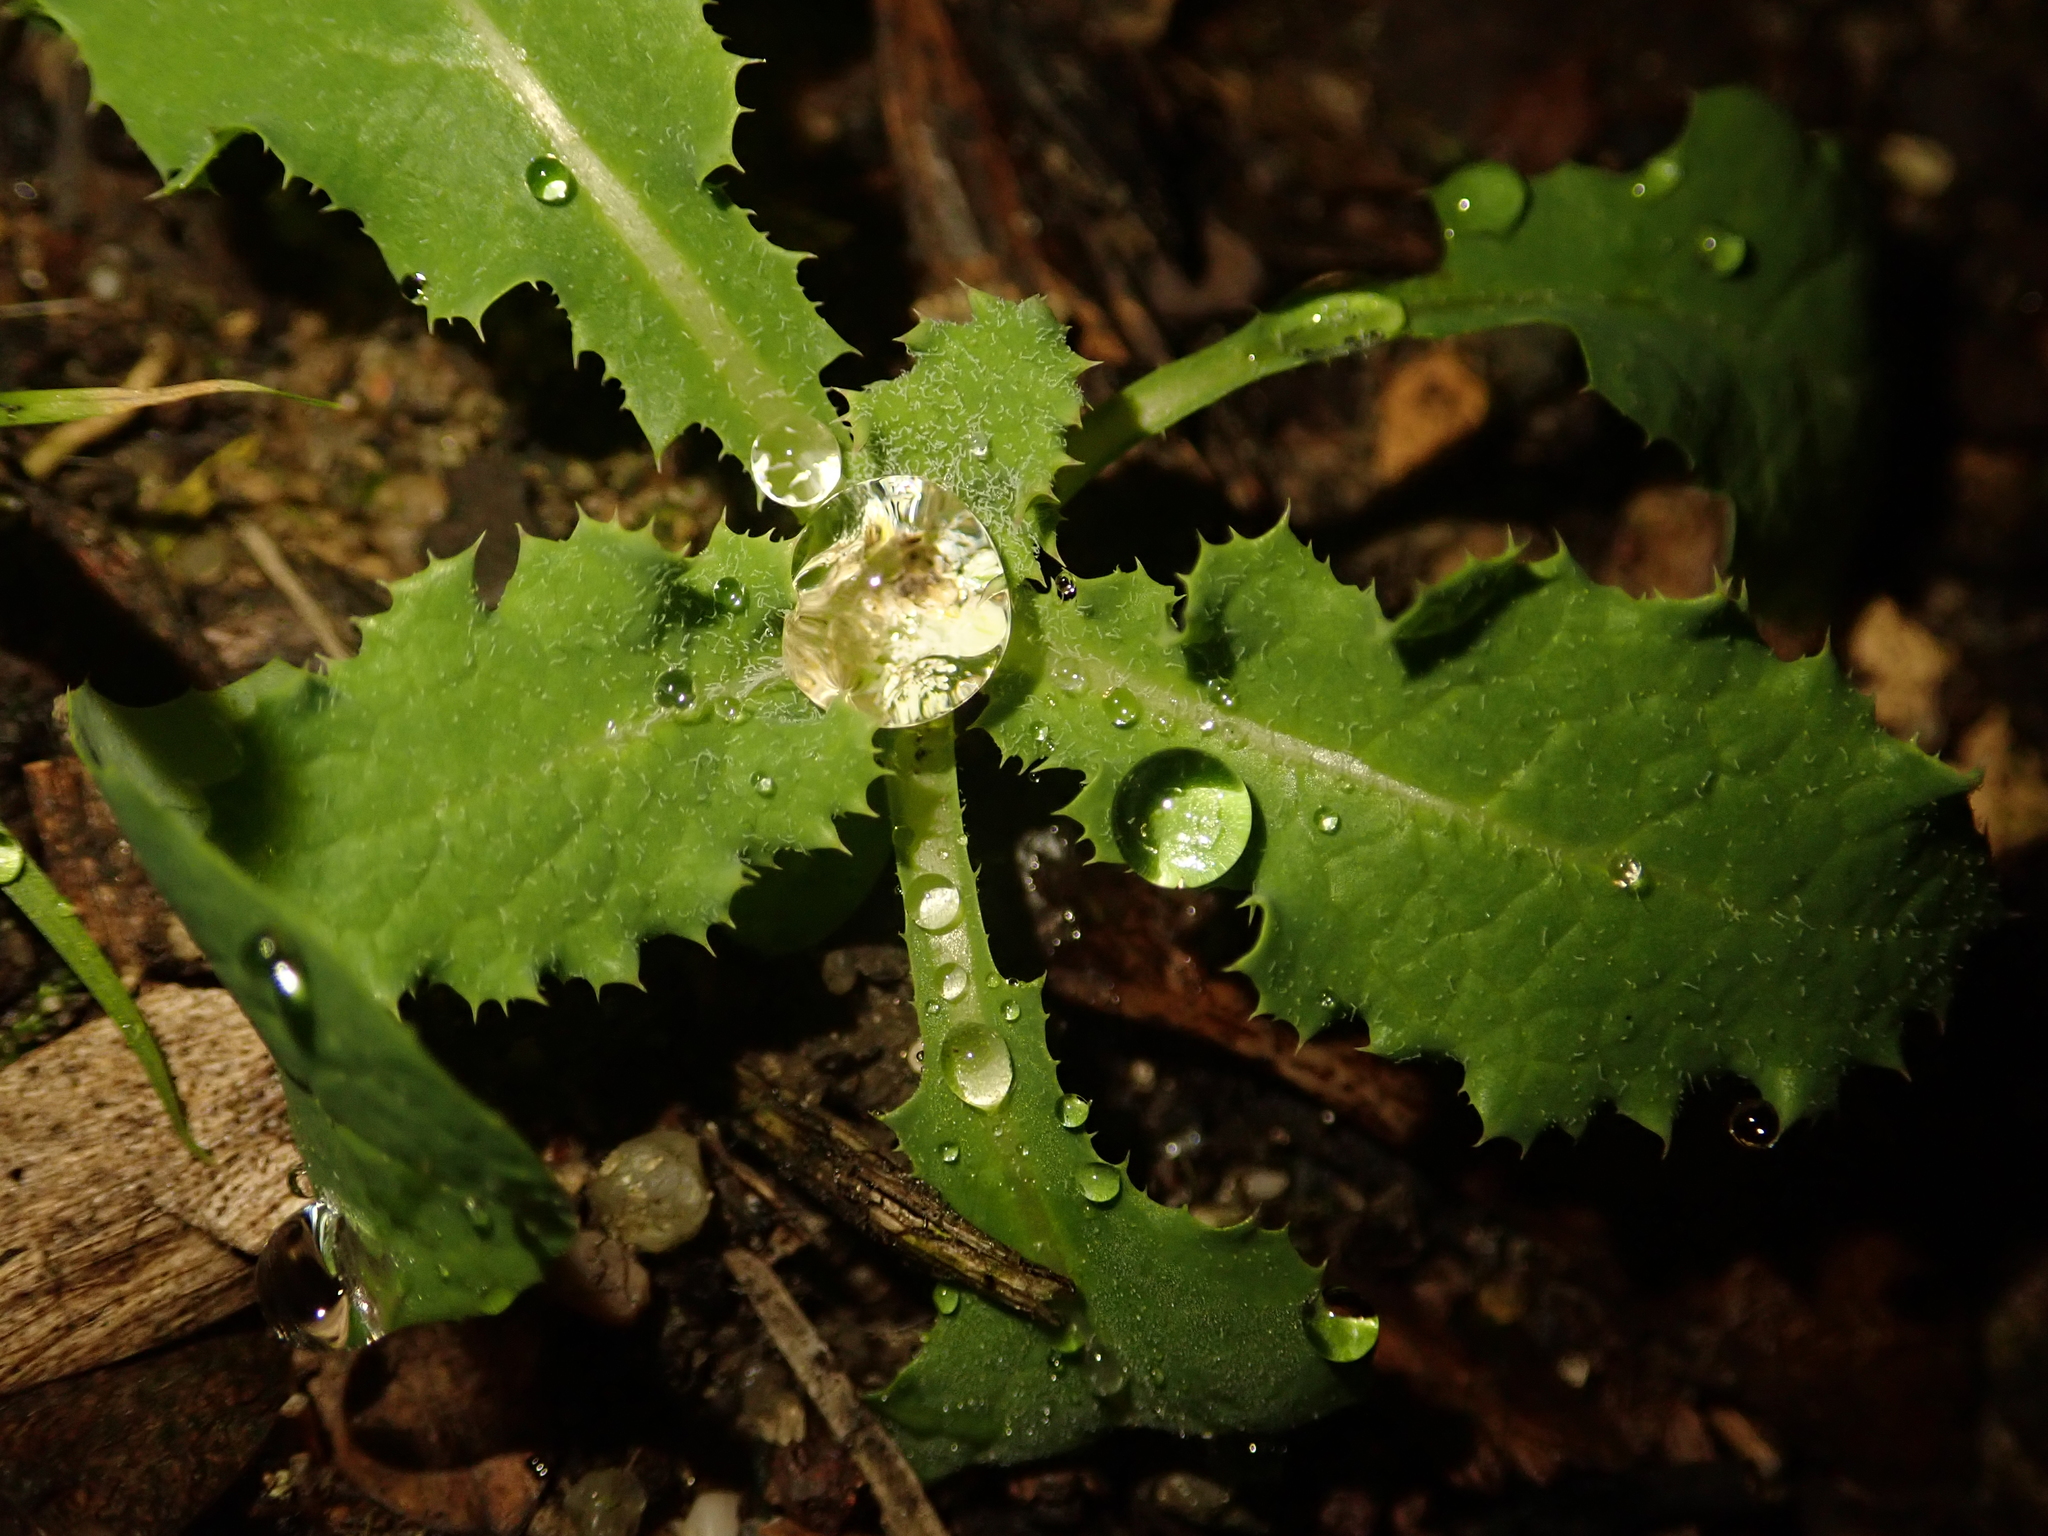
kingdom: Plantae
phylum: Tracheophyta
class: Magnoliopsida
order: Asterales
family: Asteraceae
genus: Sonchus
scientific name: Sonchus asper
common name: Prickly sow-thistle
